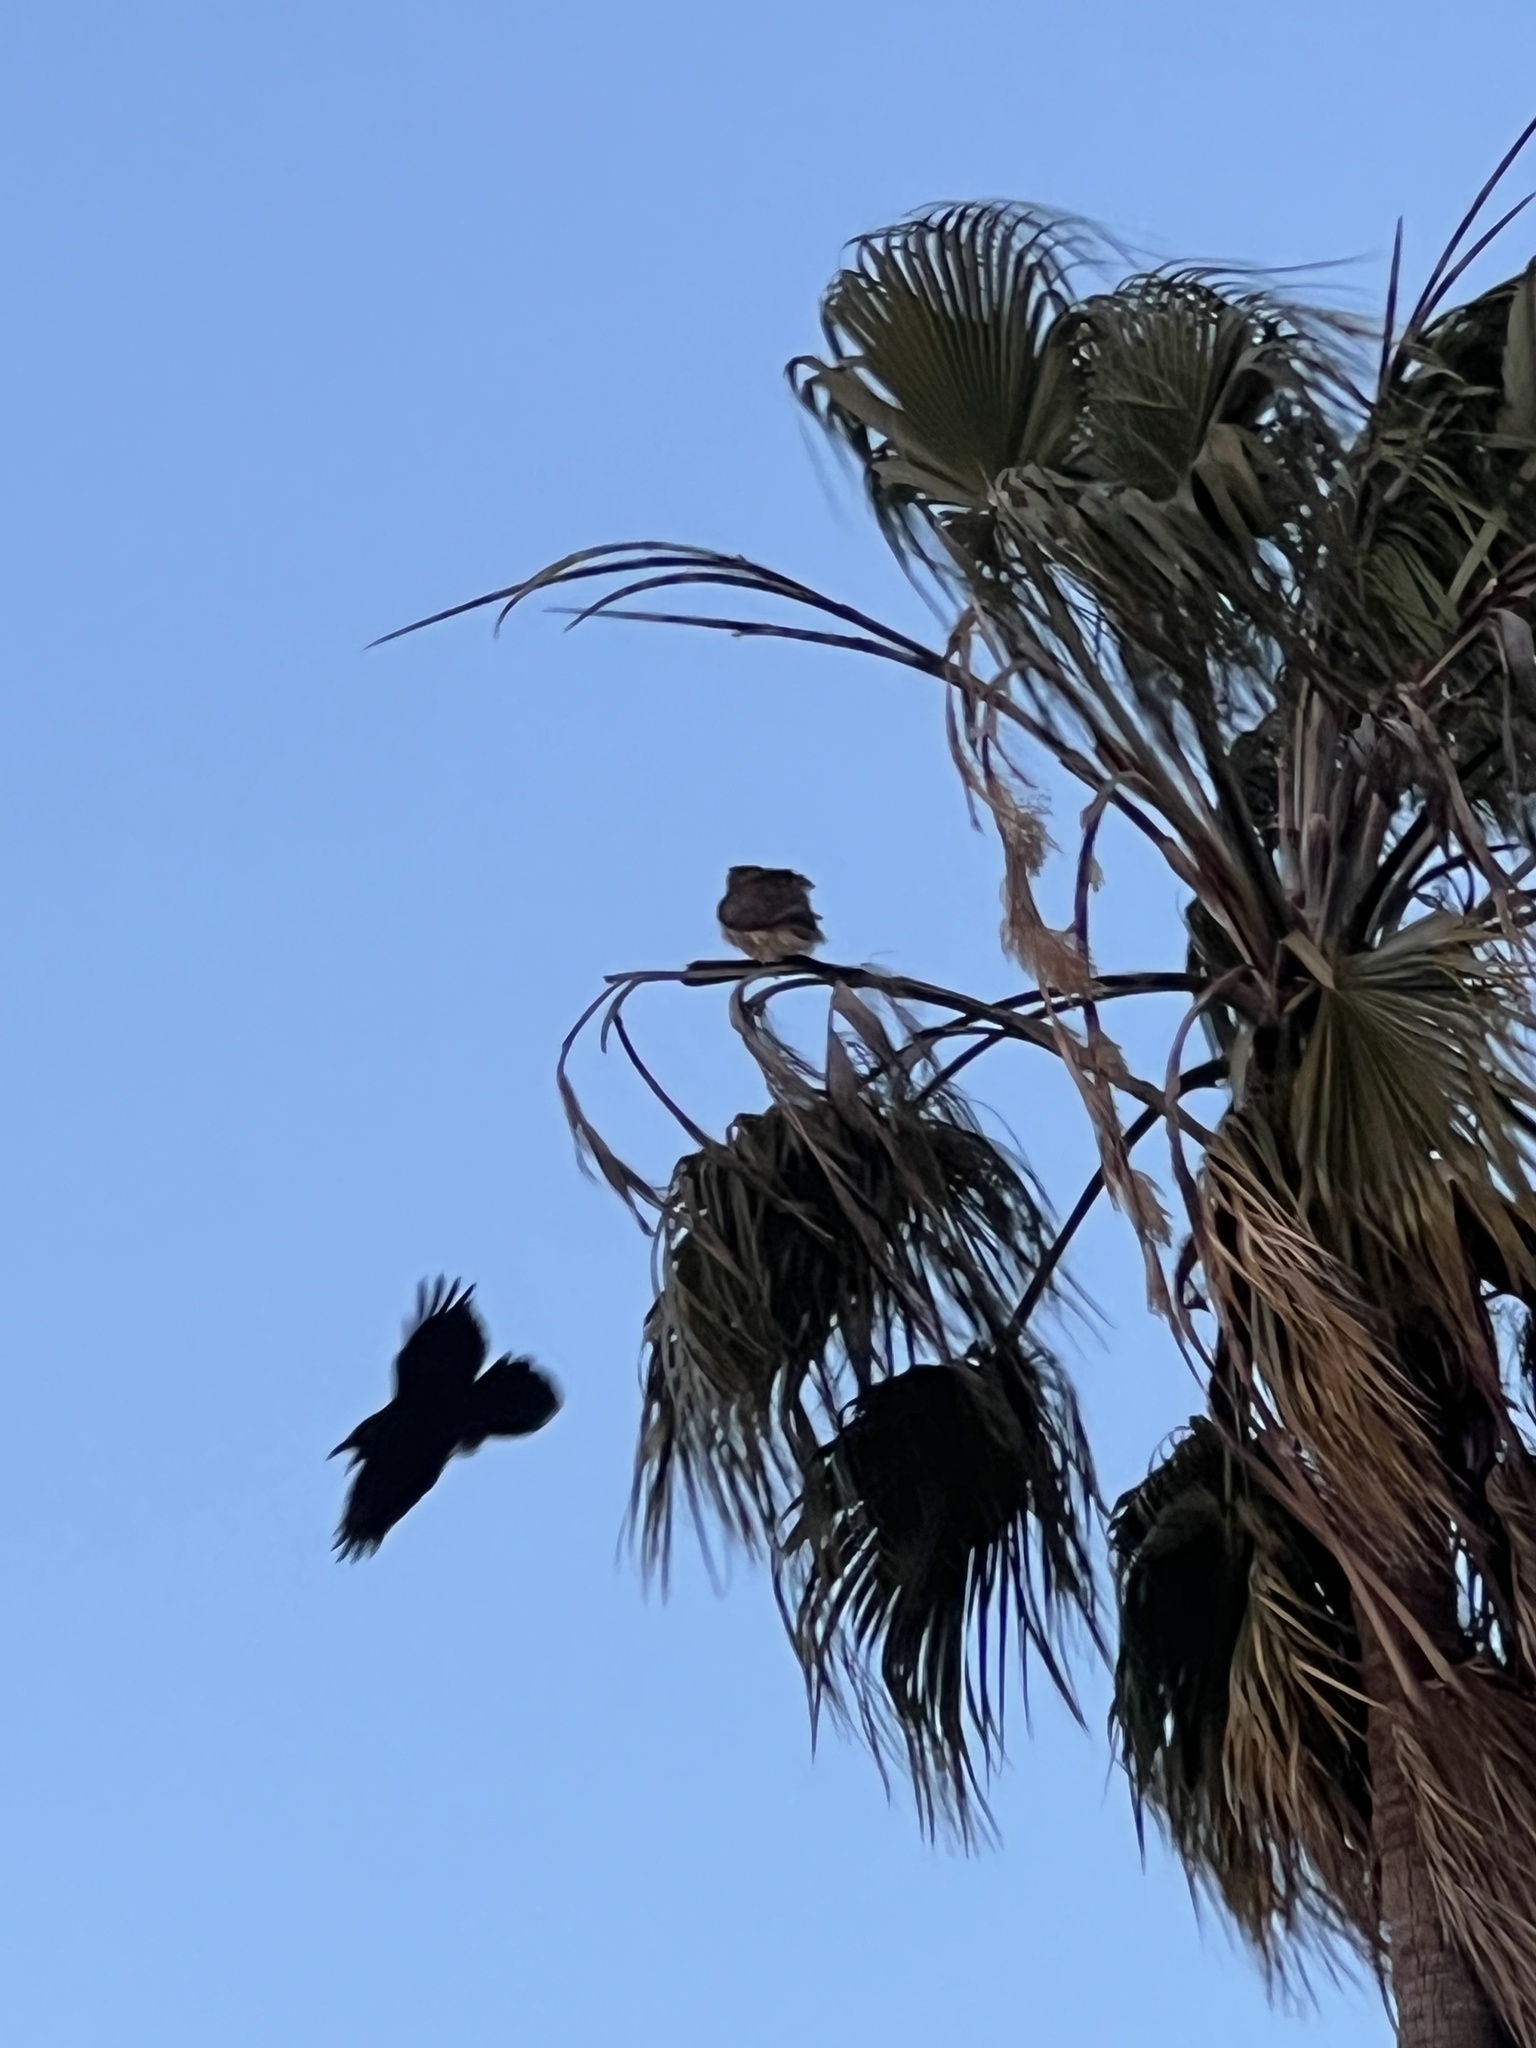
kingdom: Animalia
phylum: Chordata
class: Aves
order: Accipitriformes
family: Accipitridae
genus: Buteo
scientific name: Buteo jamaicensis
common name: Red-tailed hawk
